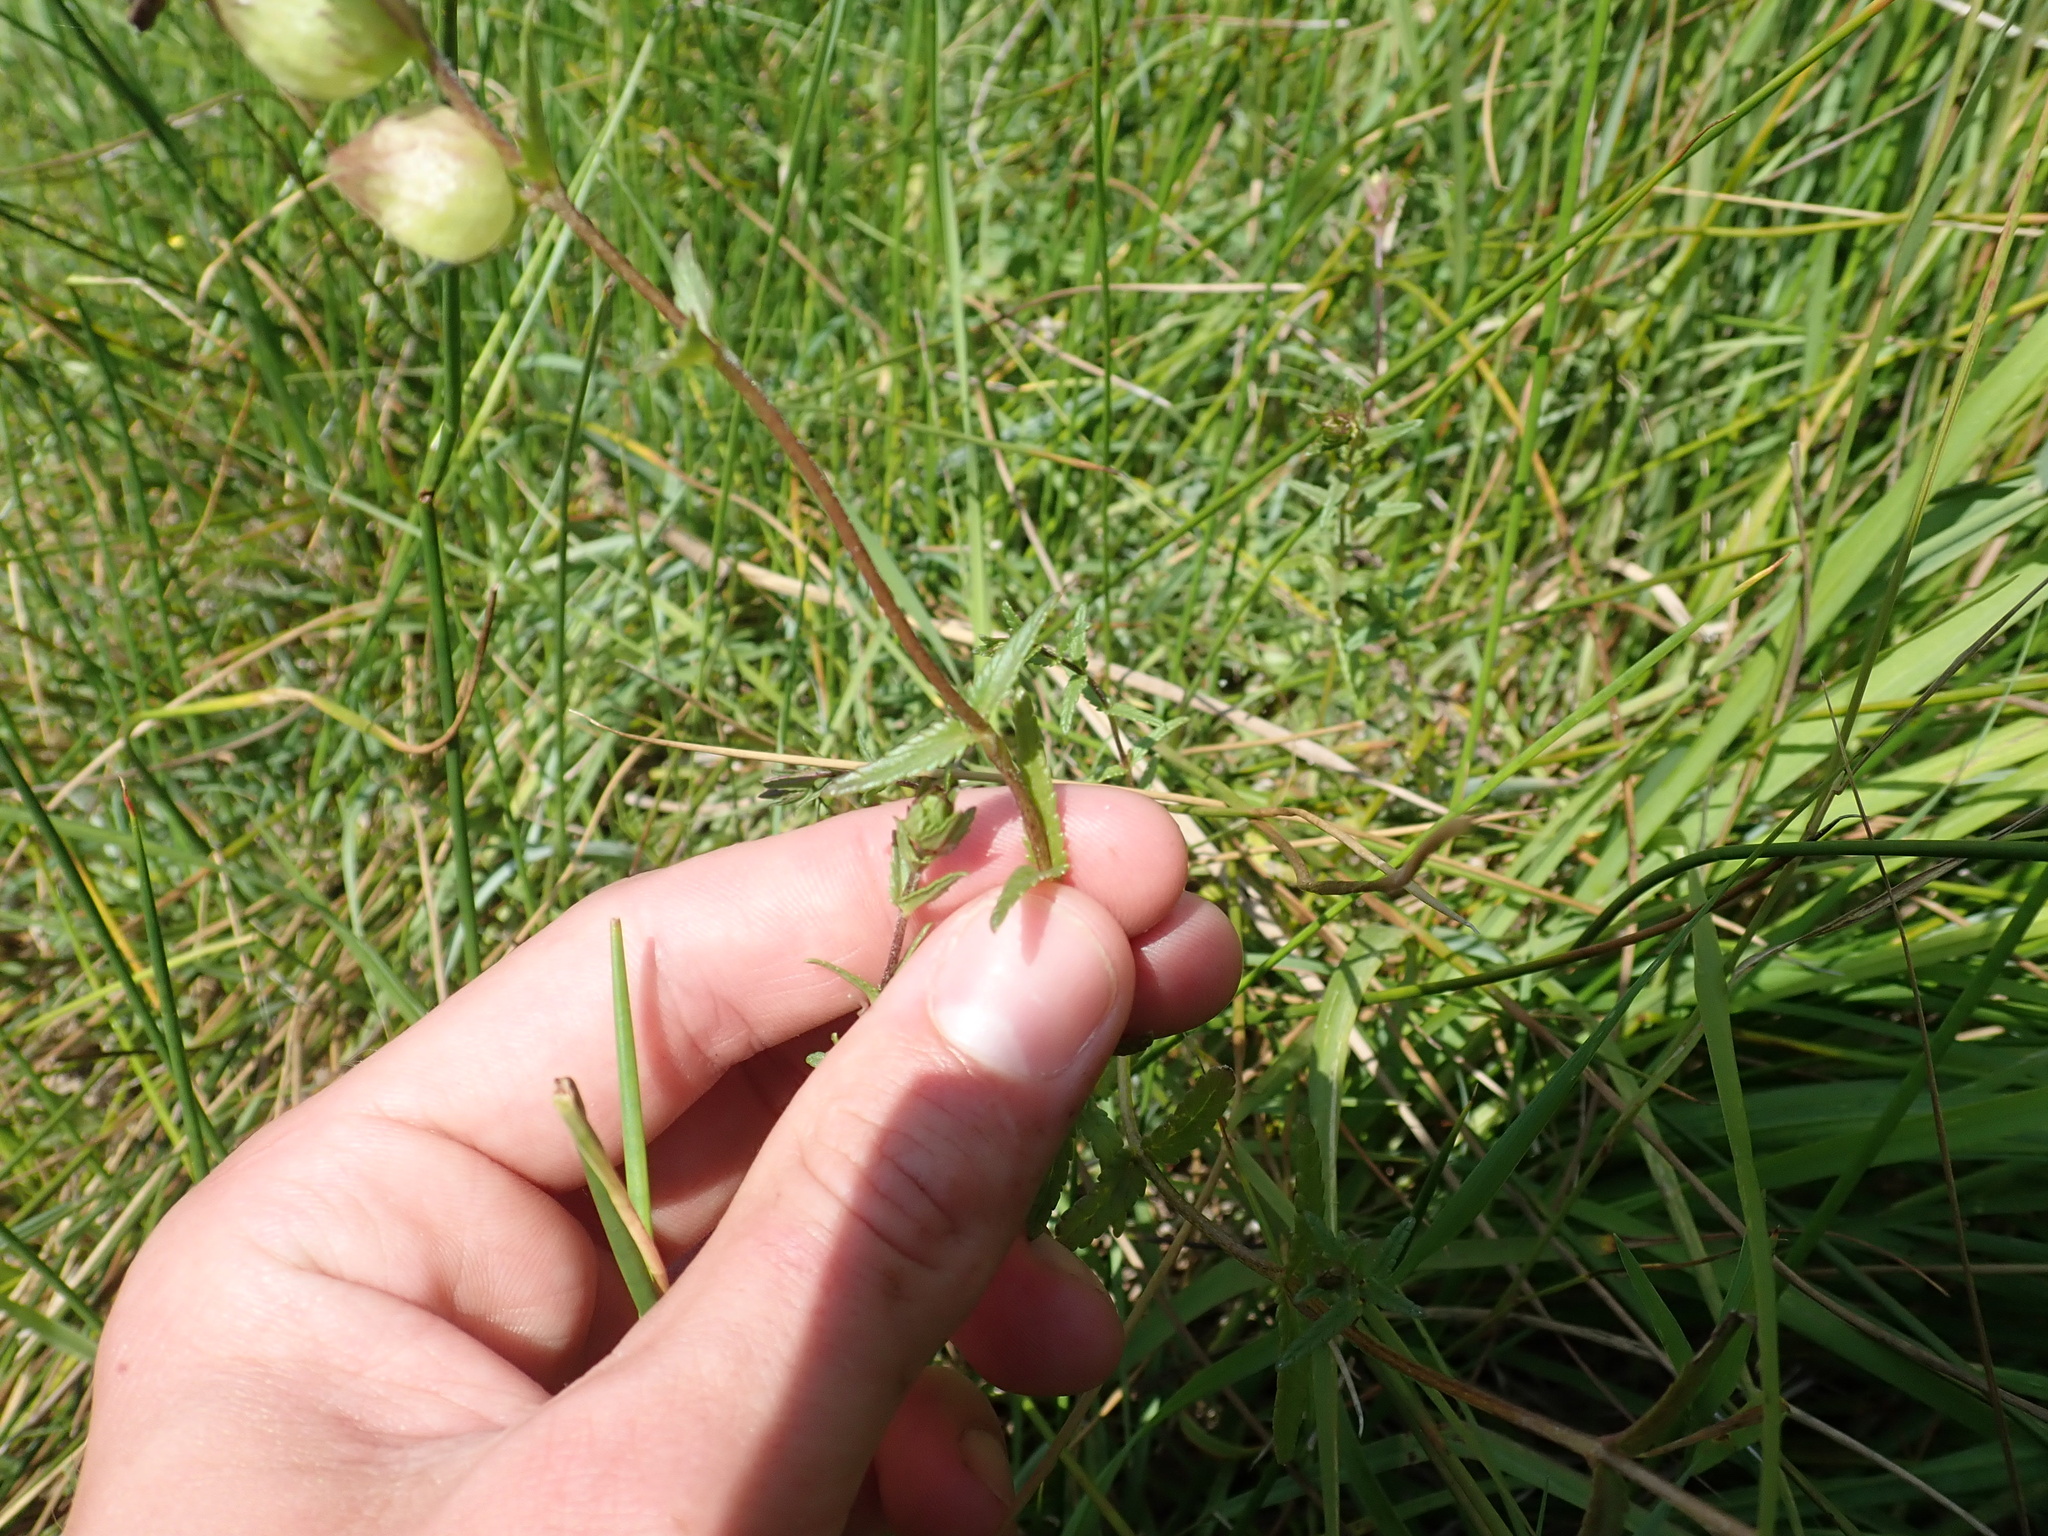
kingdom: Plantae
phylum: Tracheophyta
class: Magnoliopsida
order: Lamiales
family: Orobanchaceae
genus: Rhinanthus
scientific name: Rhinanthus minor
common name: Yellow-rattle
